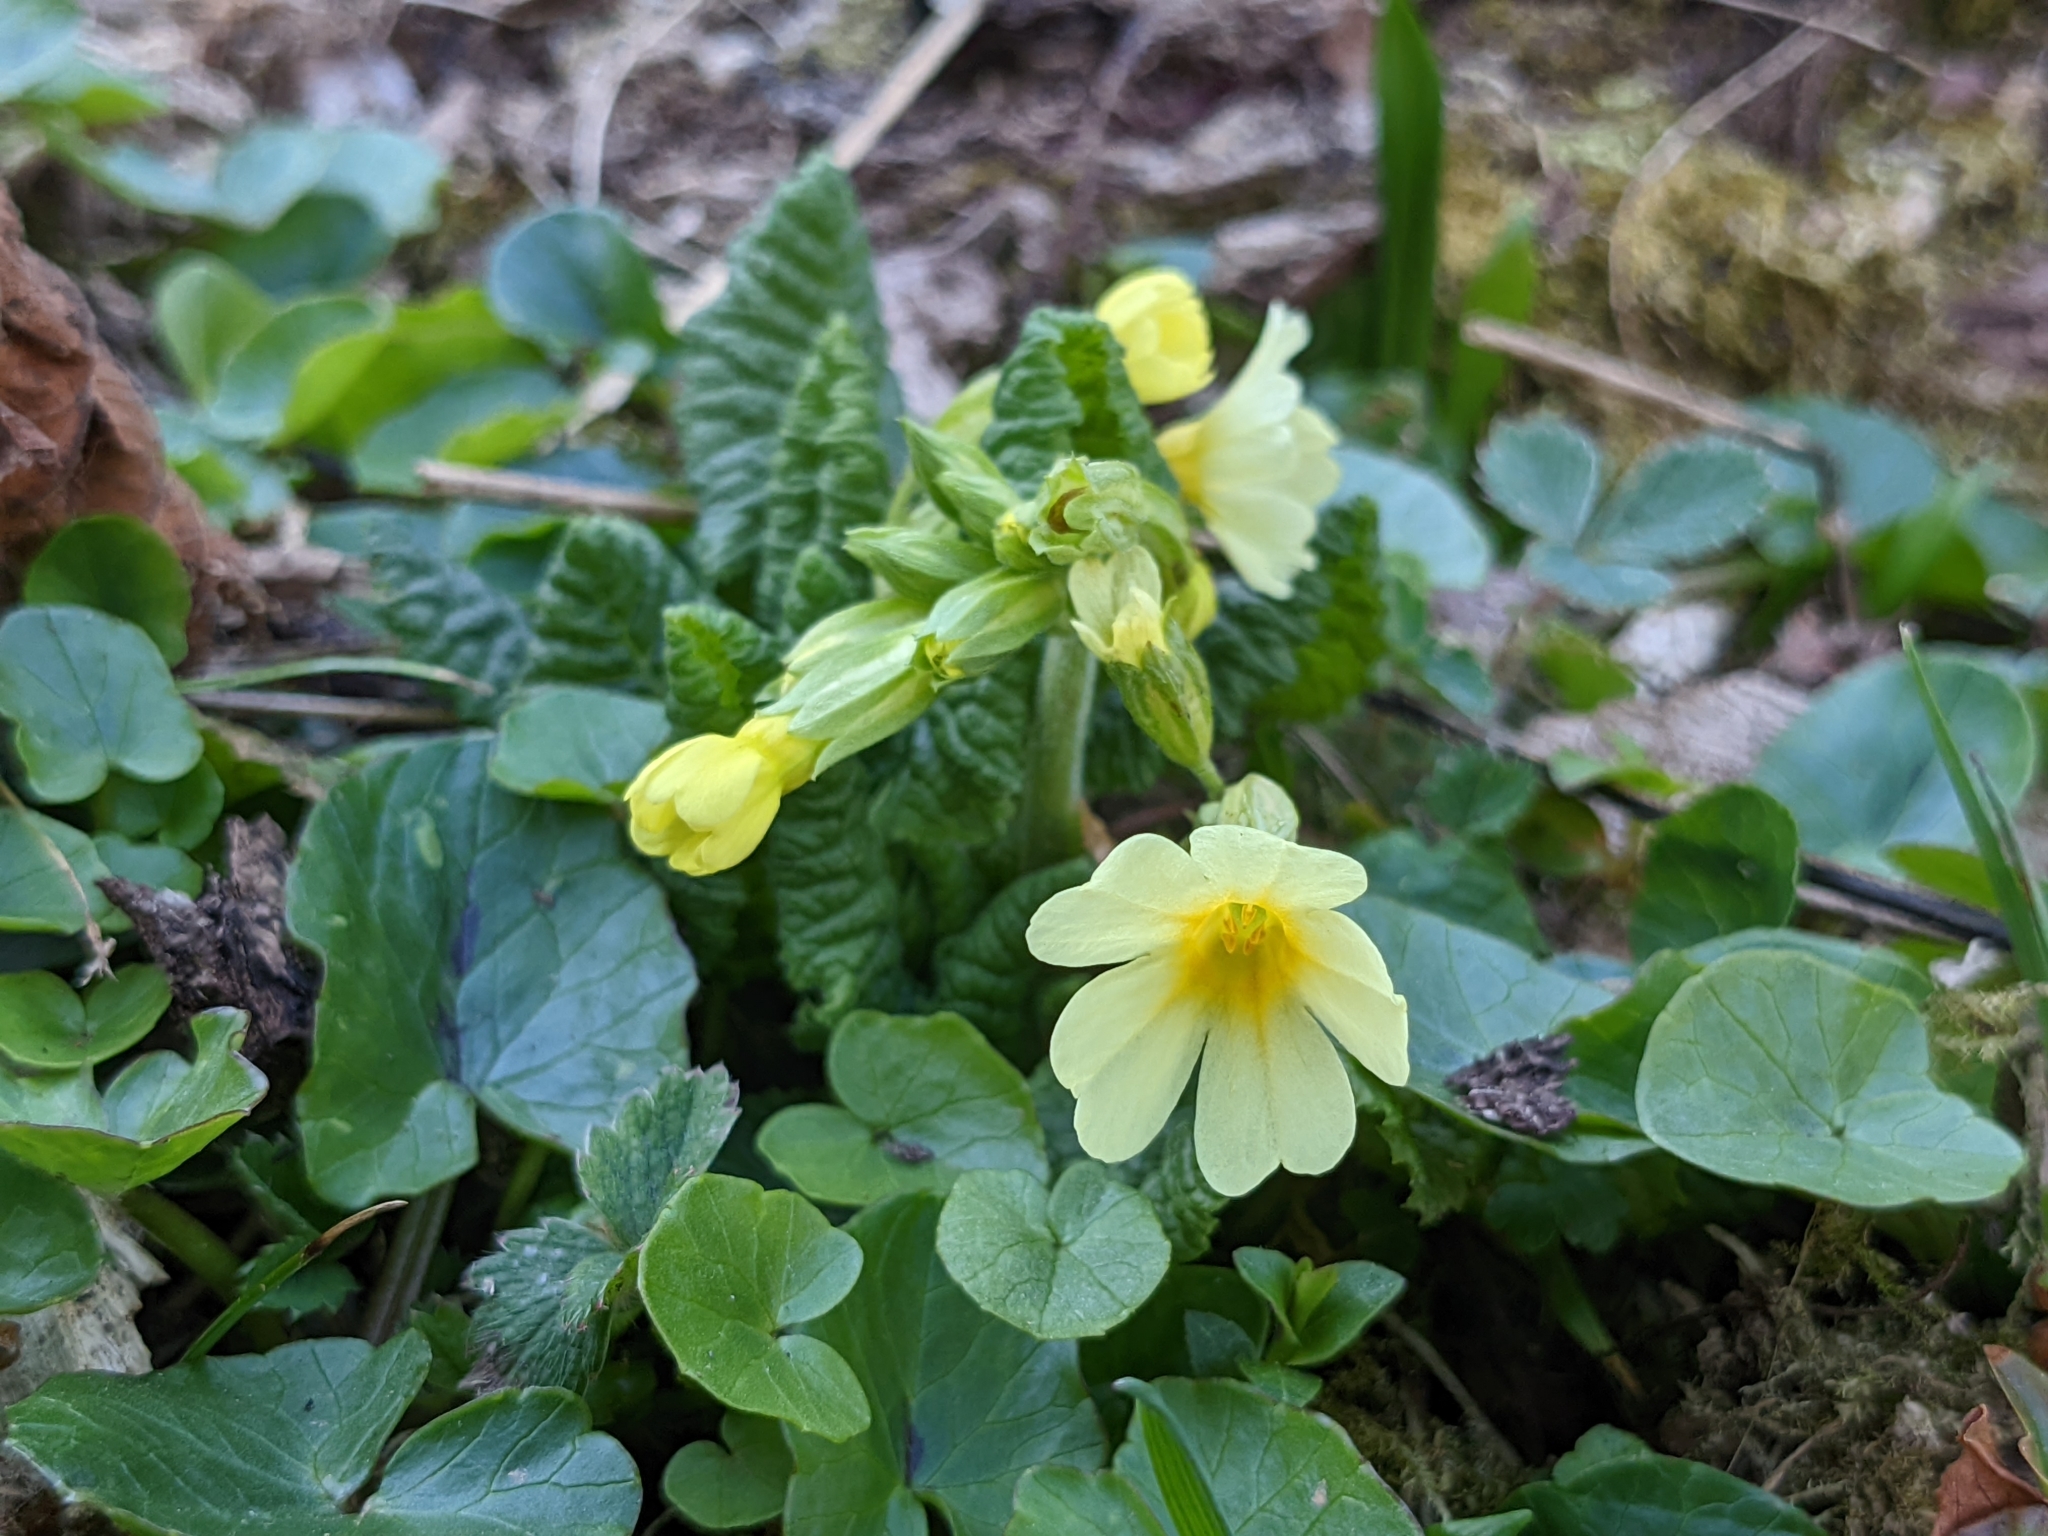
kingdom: Plantae
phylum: Tracheophyta
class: Magnoliopsida
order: Ericales
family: Primulaceae
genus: Primula
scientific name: Primula elatior
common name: Oxlip
